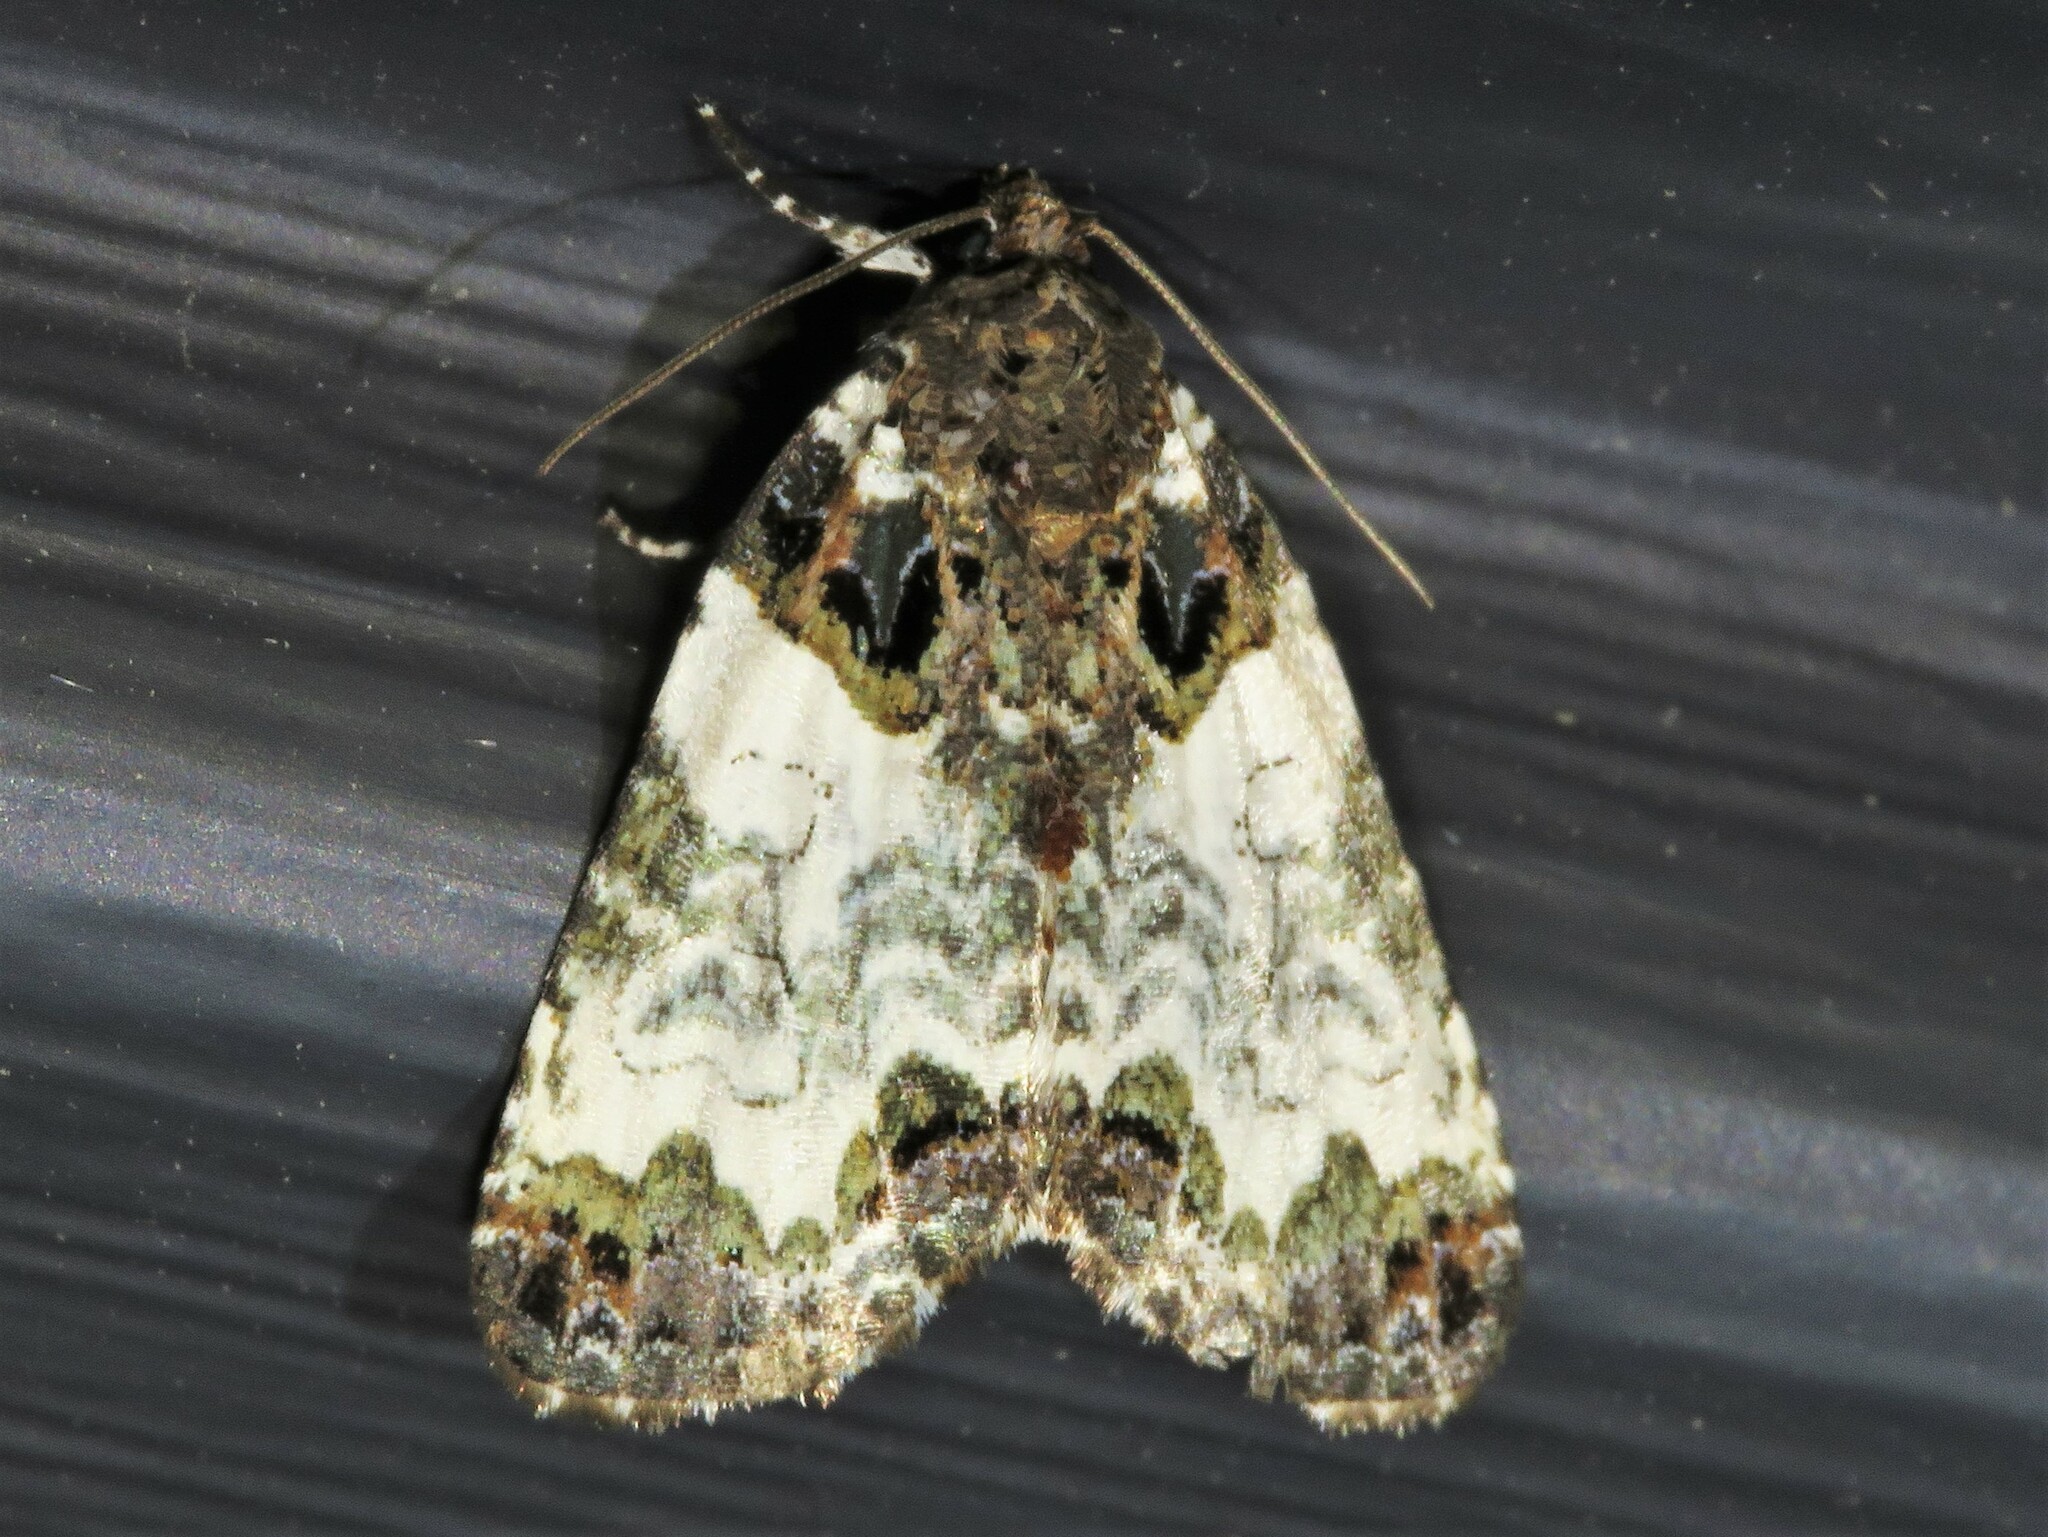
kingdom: Animalia
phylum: Arthropoda
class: Insecta
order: Lepidoptera
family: Noctuidae
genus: Cerma
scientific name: Cerma cerintha
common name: Tufted bird-dropping moth
